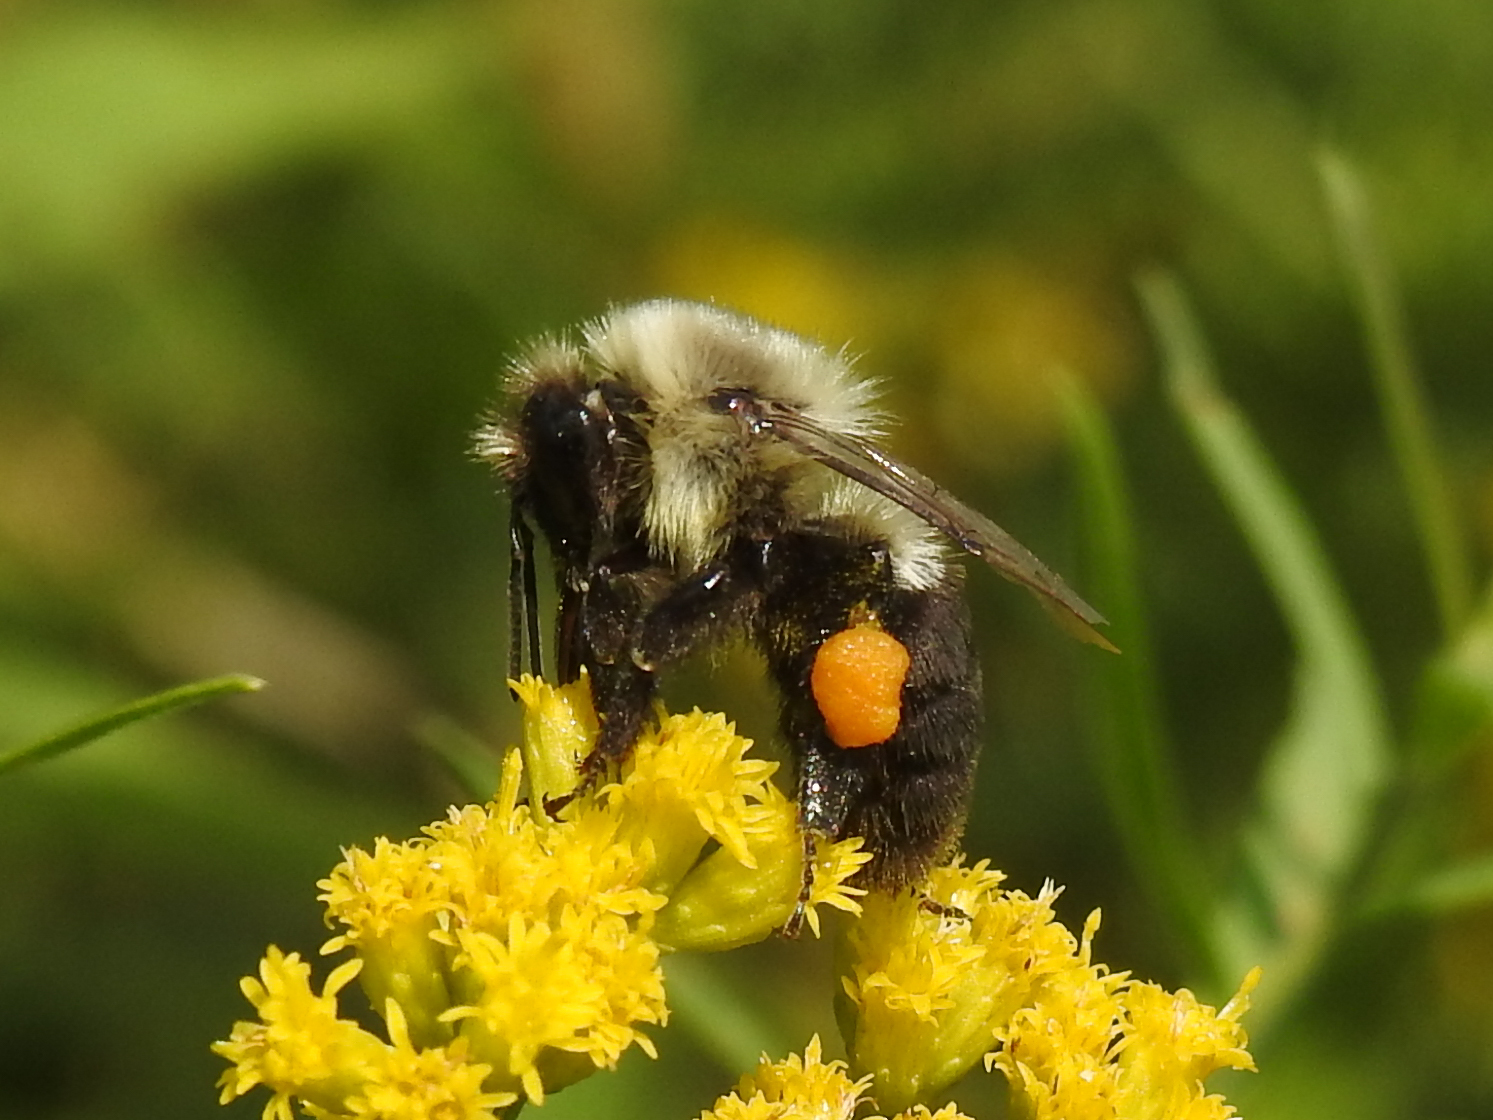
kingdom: Animalia
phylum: Arthropoda
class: Insecta
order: Hymenoptera
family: Apidae
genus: Bombus
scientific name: Bombus impatiens
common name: Common eastern bumble bee
